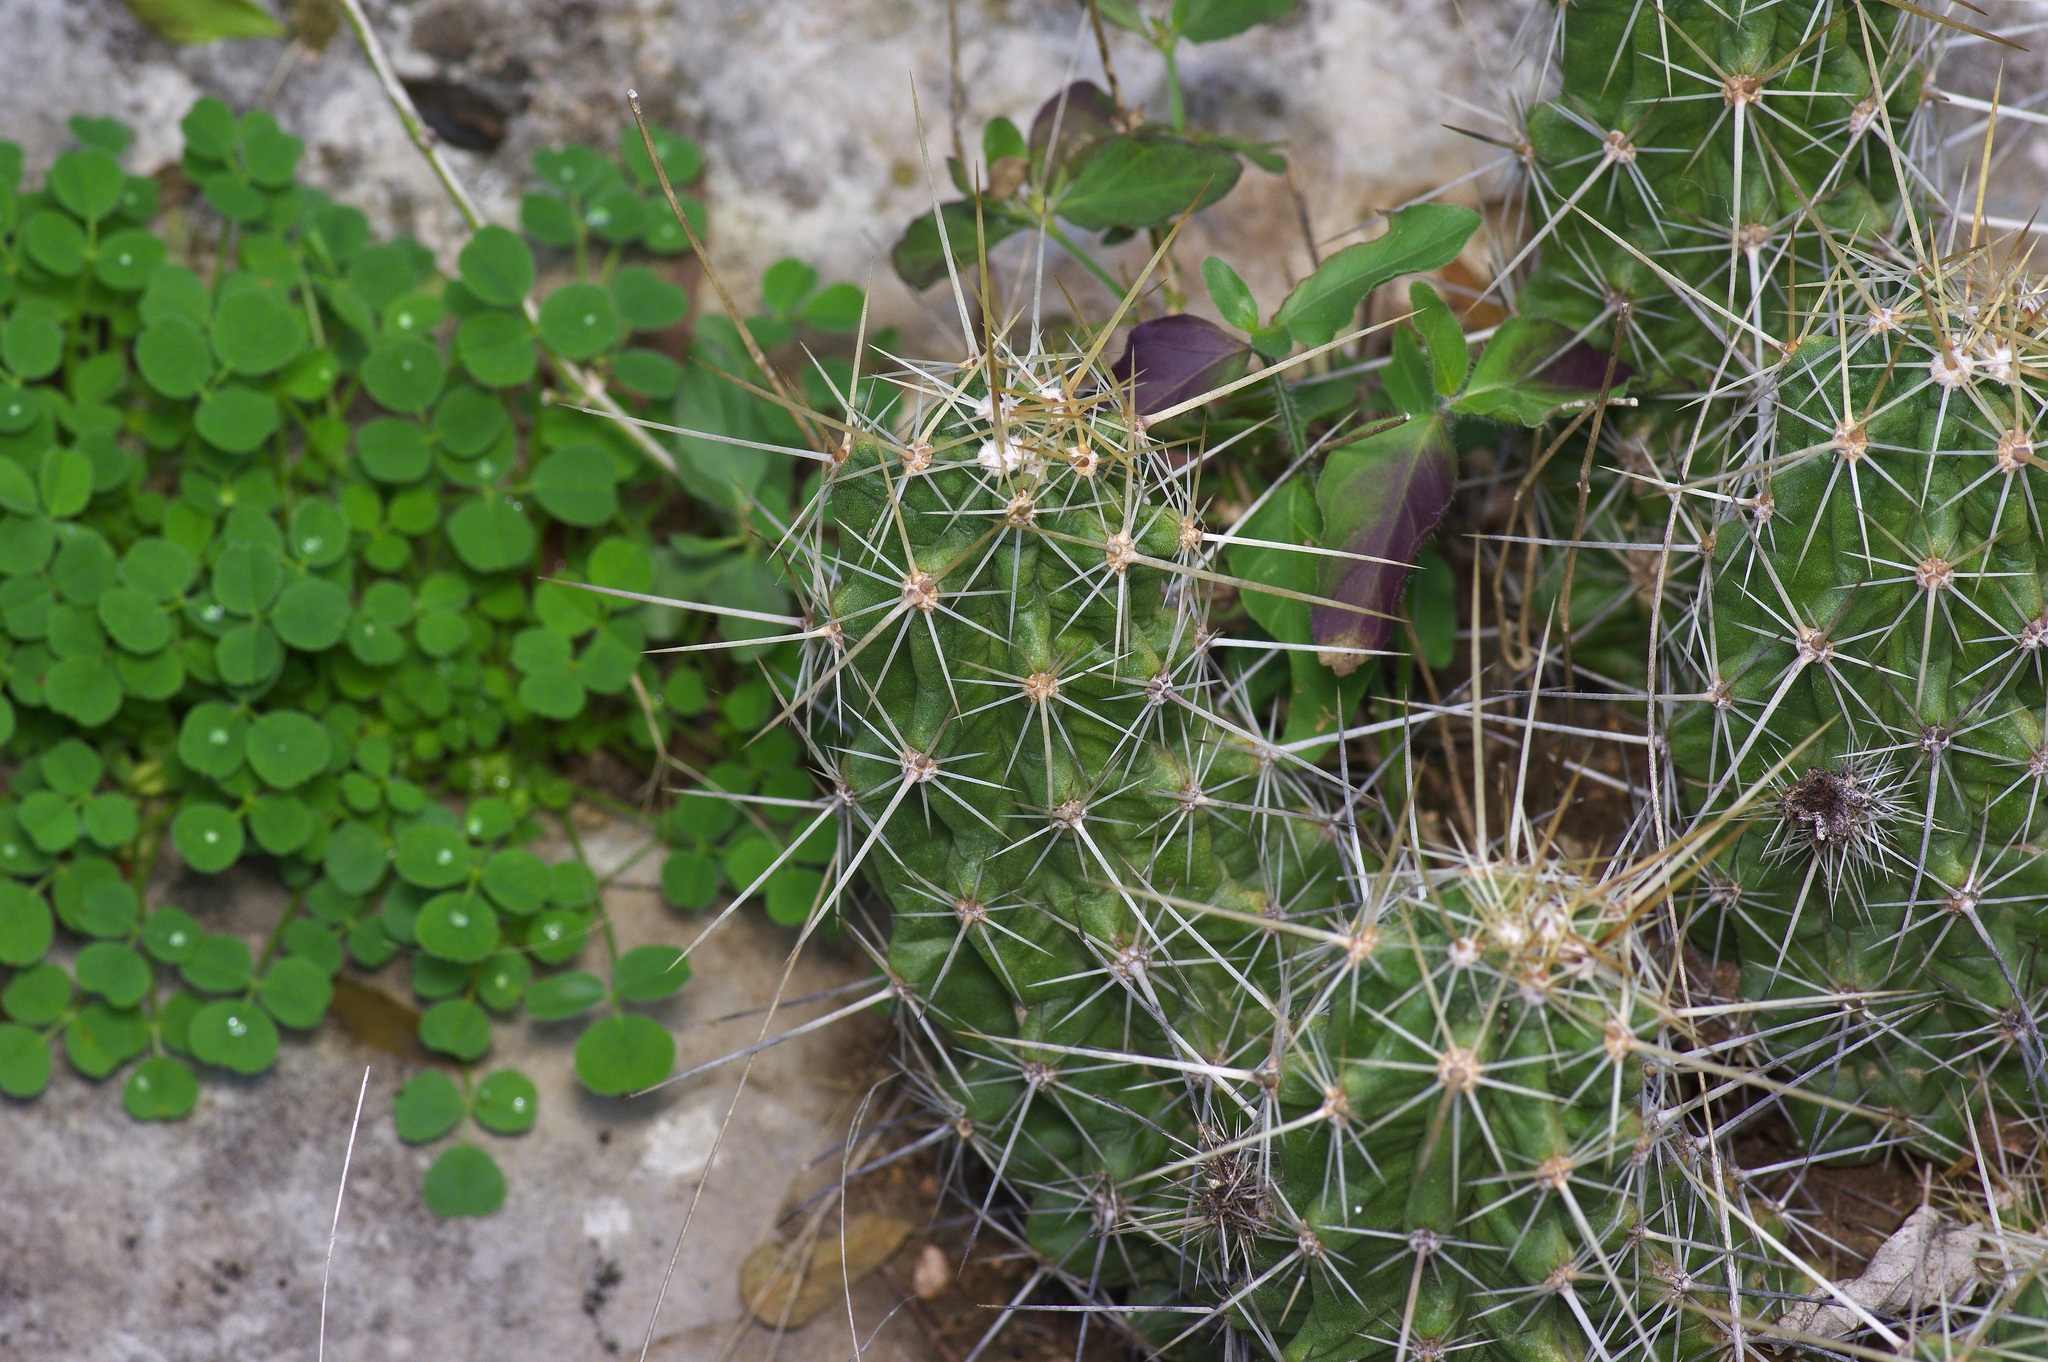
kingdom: Plantae
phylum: Tracheophyta
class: Magnoliopsida
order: Caryophyllales
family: Cactaceae
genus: Echinocereus
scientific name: Echinocereus enneacanthus
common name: Pitaya
